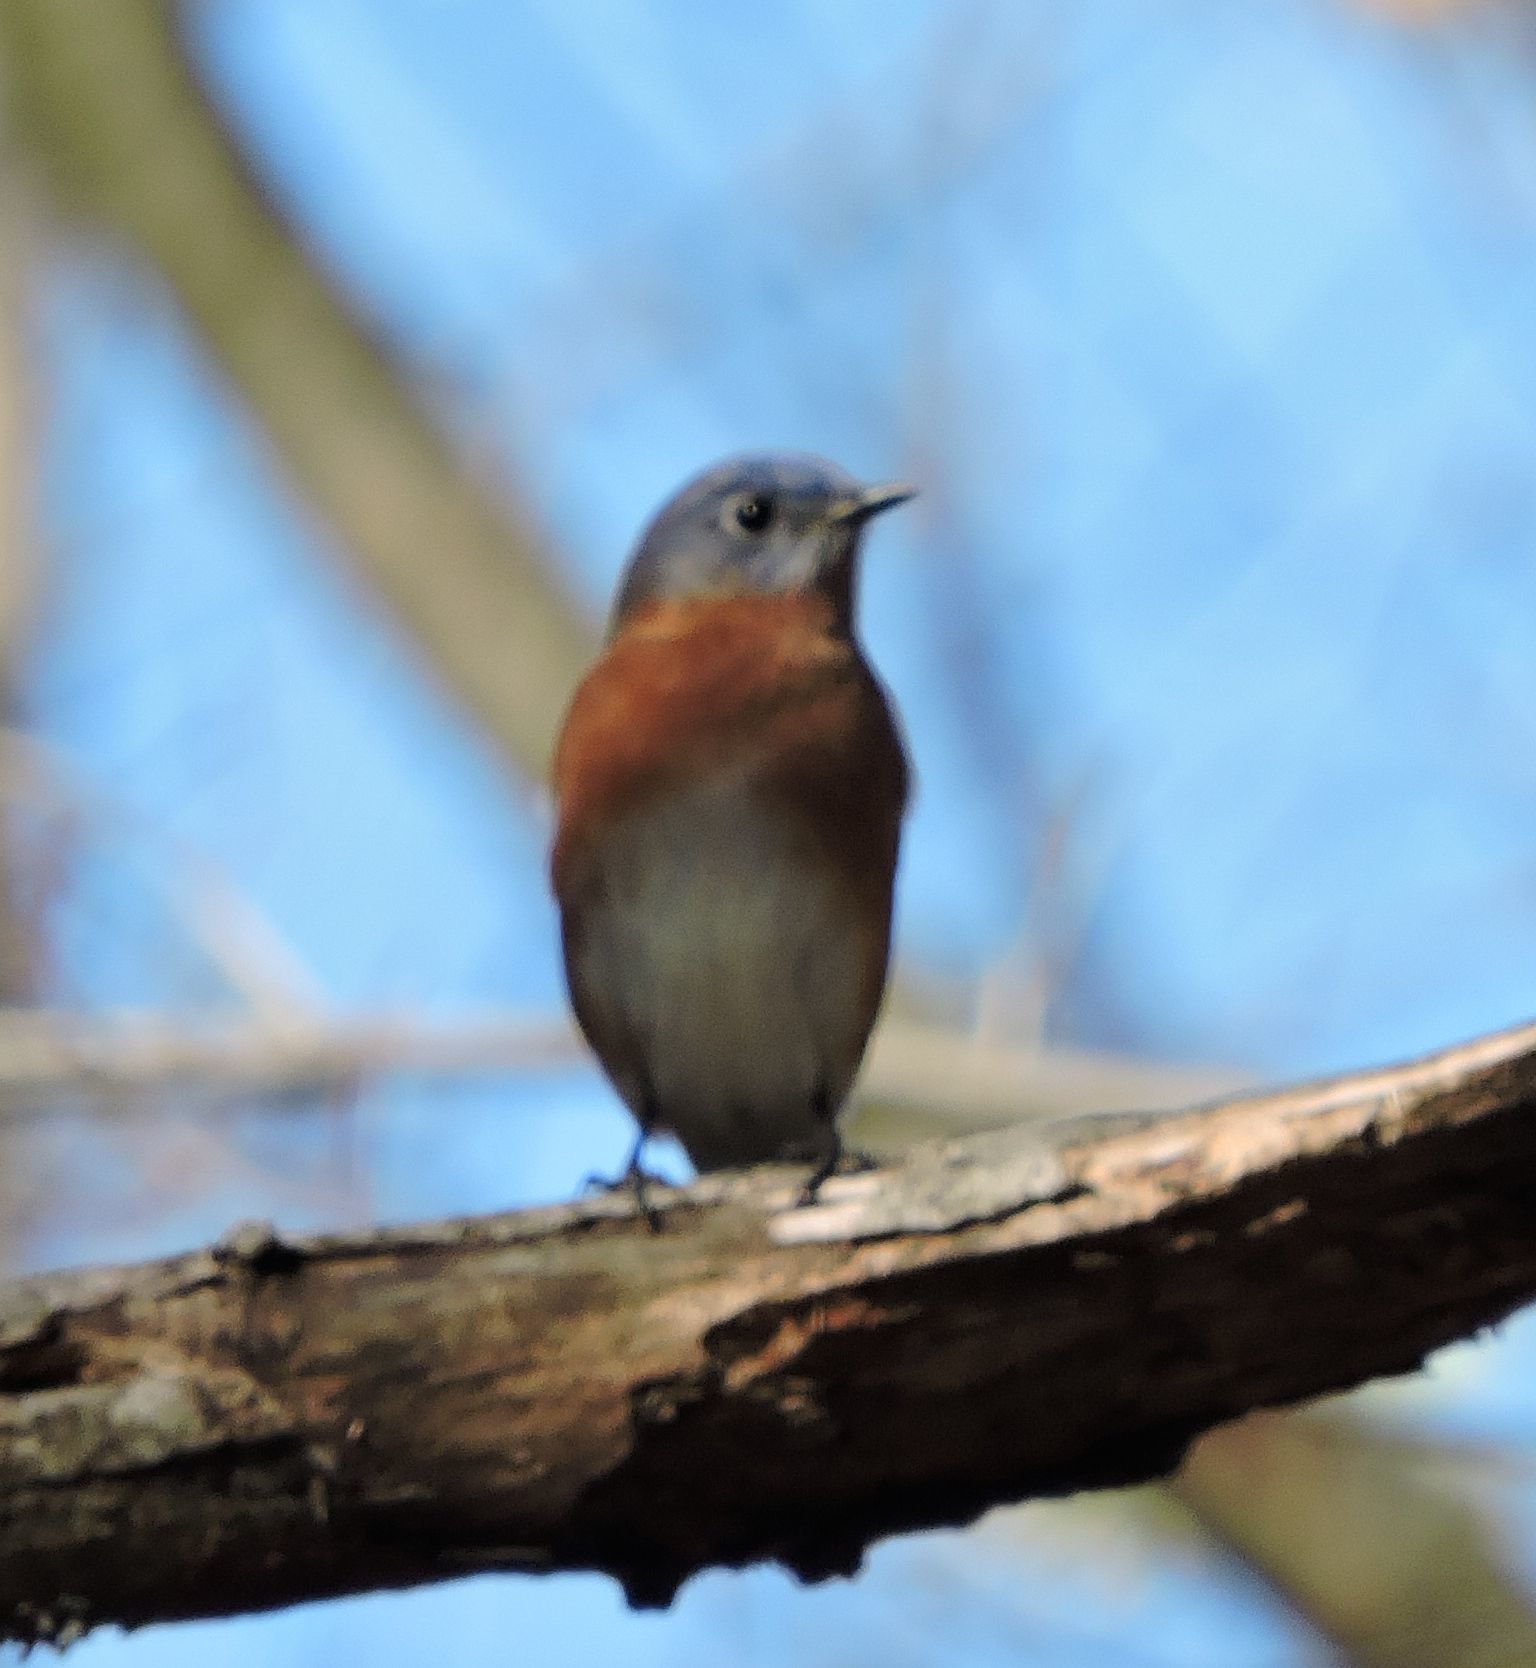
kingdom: Animalia
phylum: Chordata
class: Aves
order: Passeriformes
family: Turdidae
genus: Sialia
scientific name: Sialia sialis
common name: Eastern bluebird
